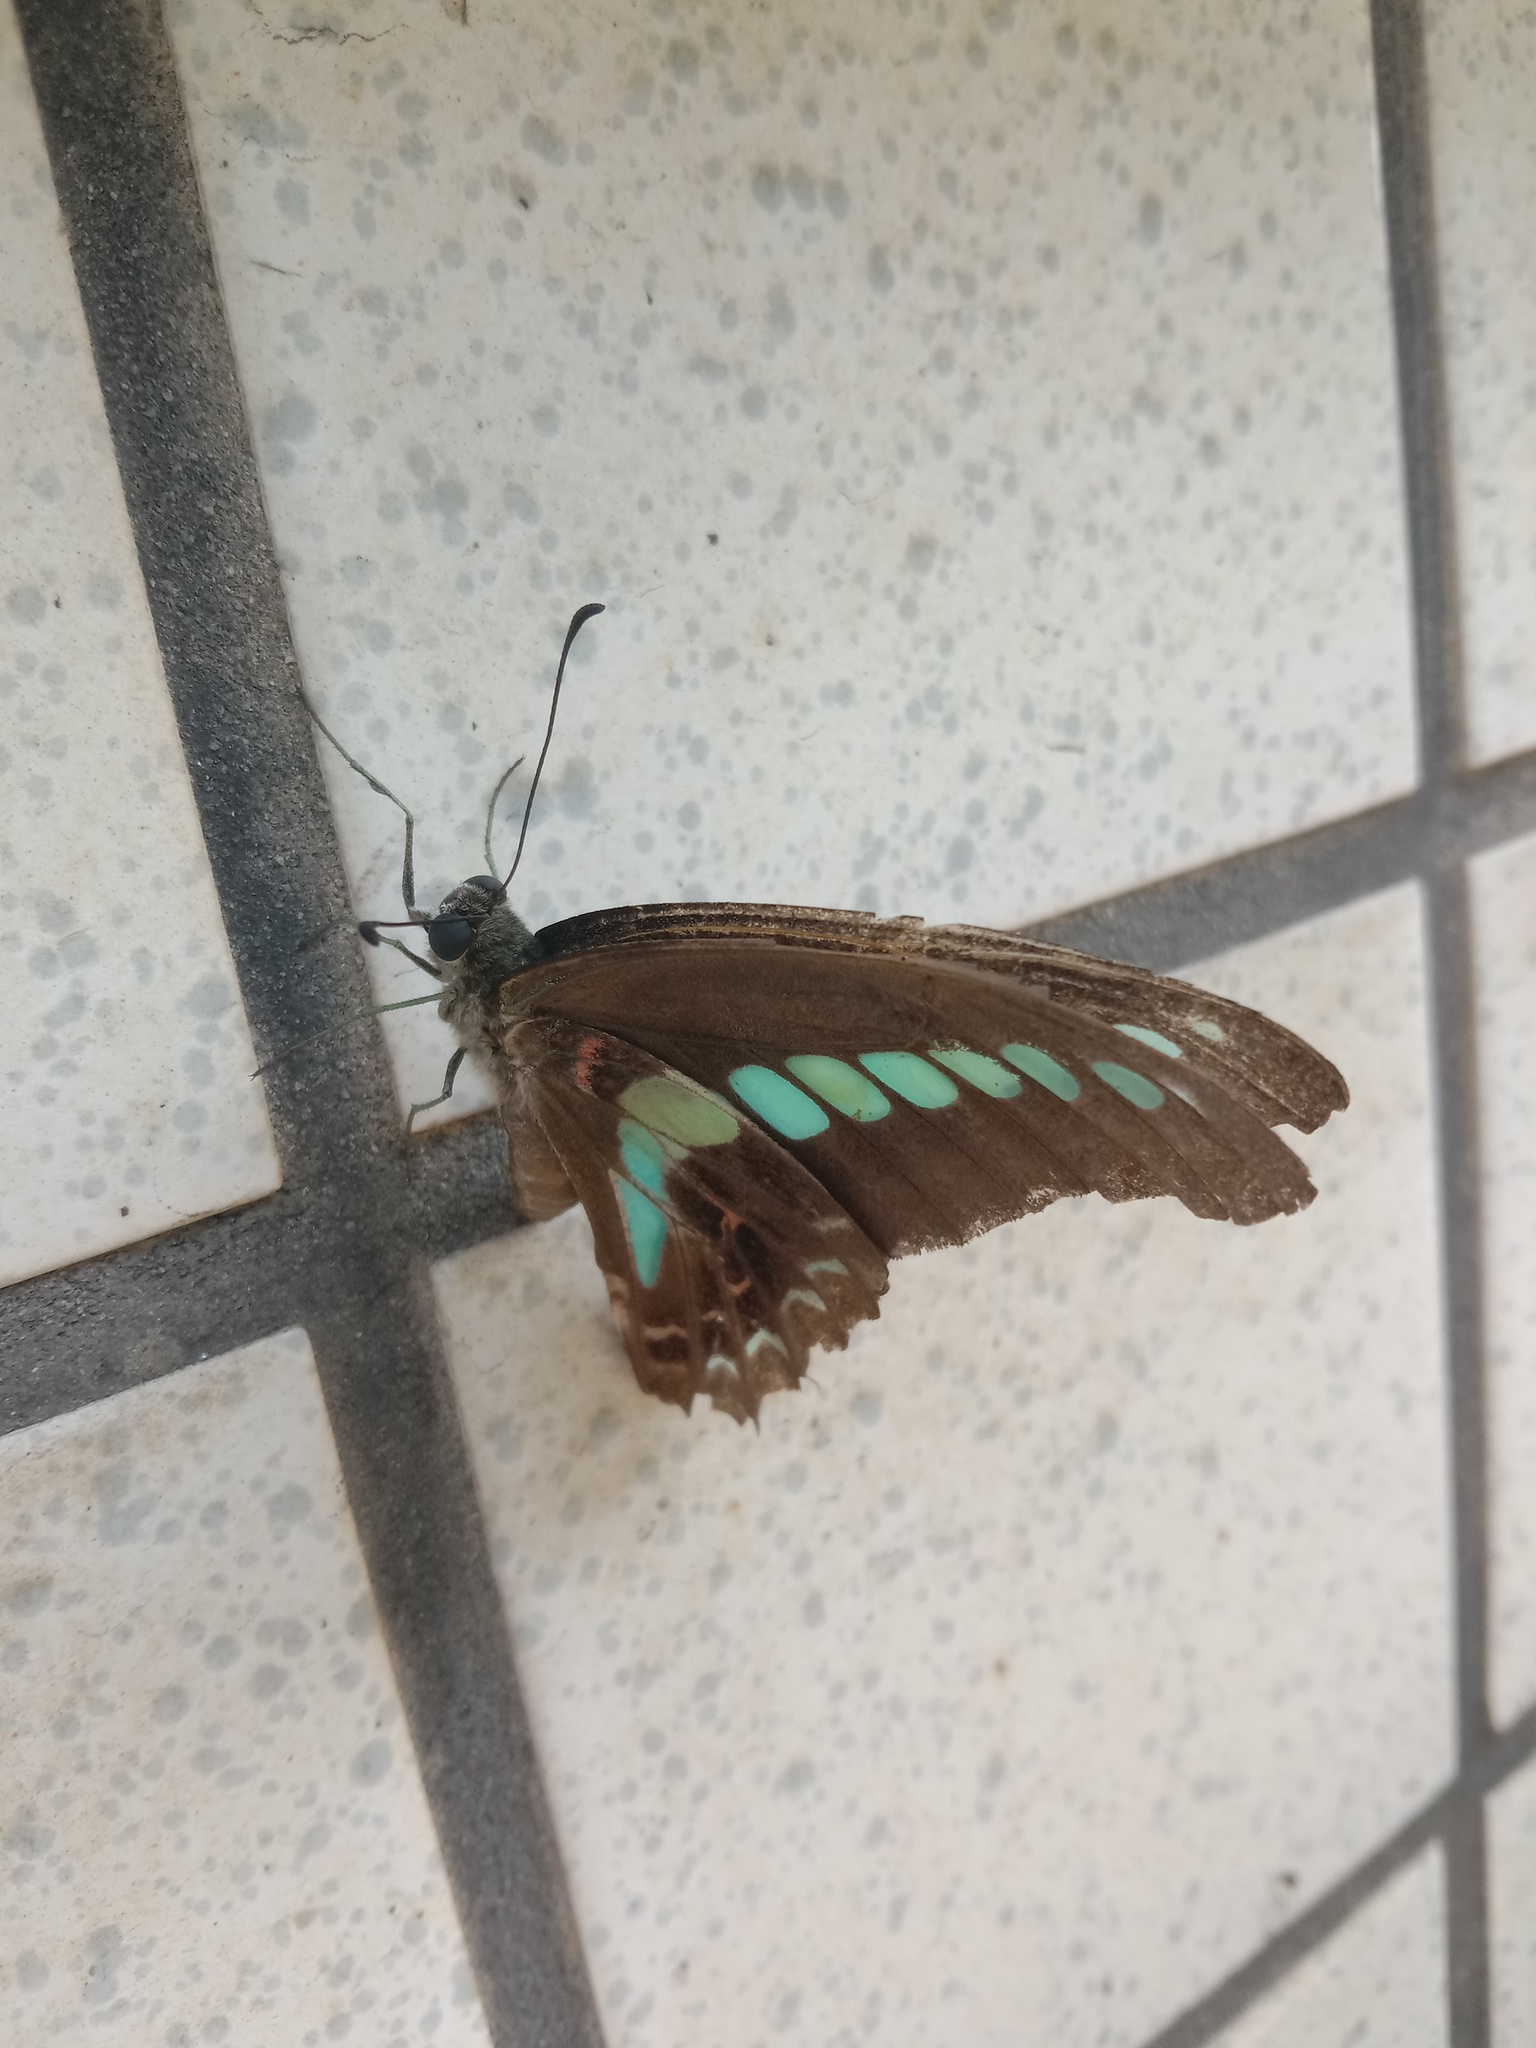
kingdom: Fungi
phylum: Ascomycota
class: Sordariomycetes
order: Microascales
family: Microascaceae
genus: Graphium
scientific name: Graphium sarpedon
